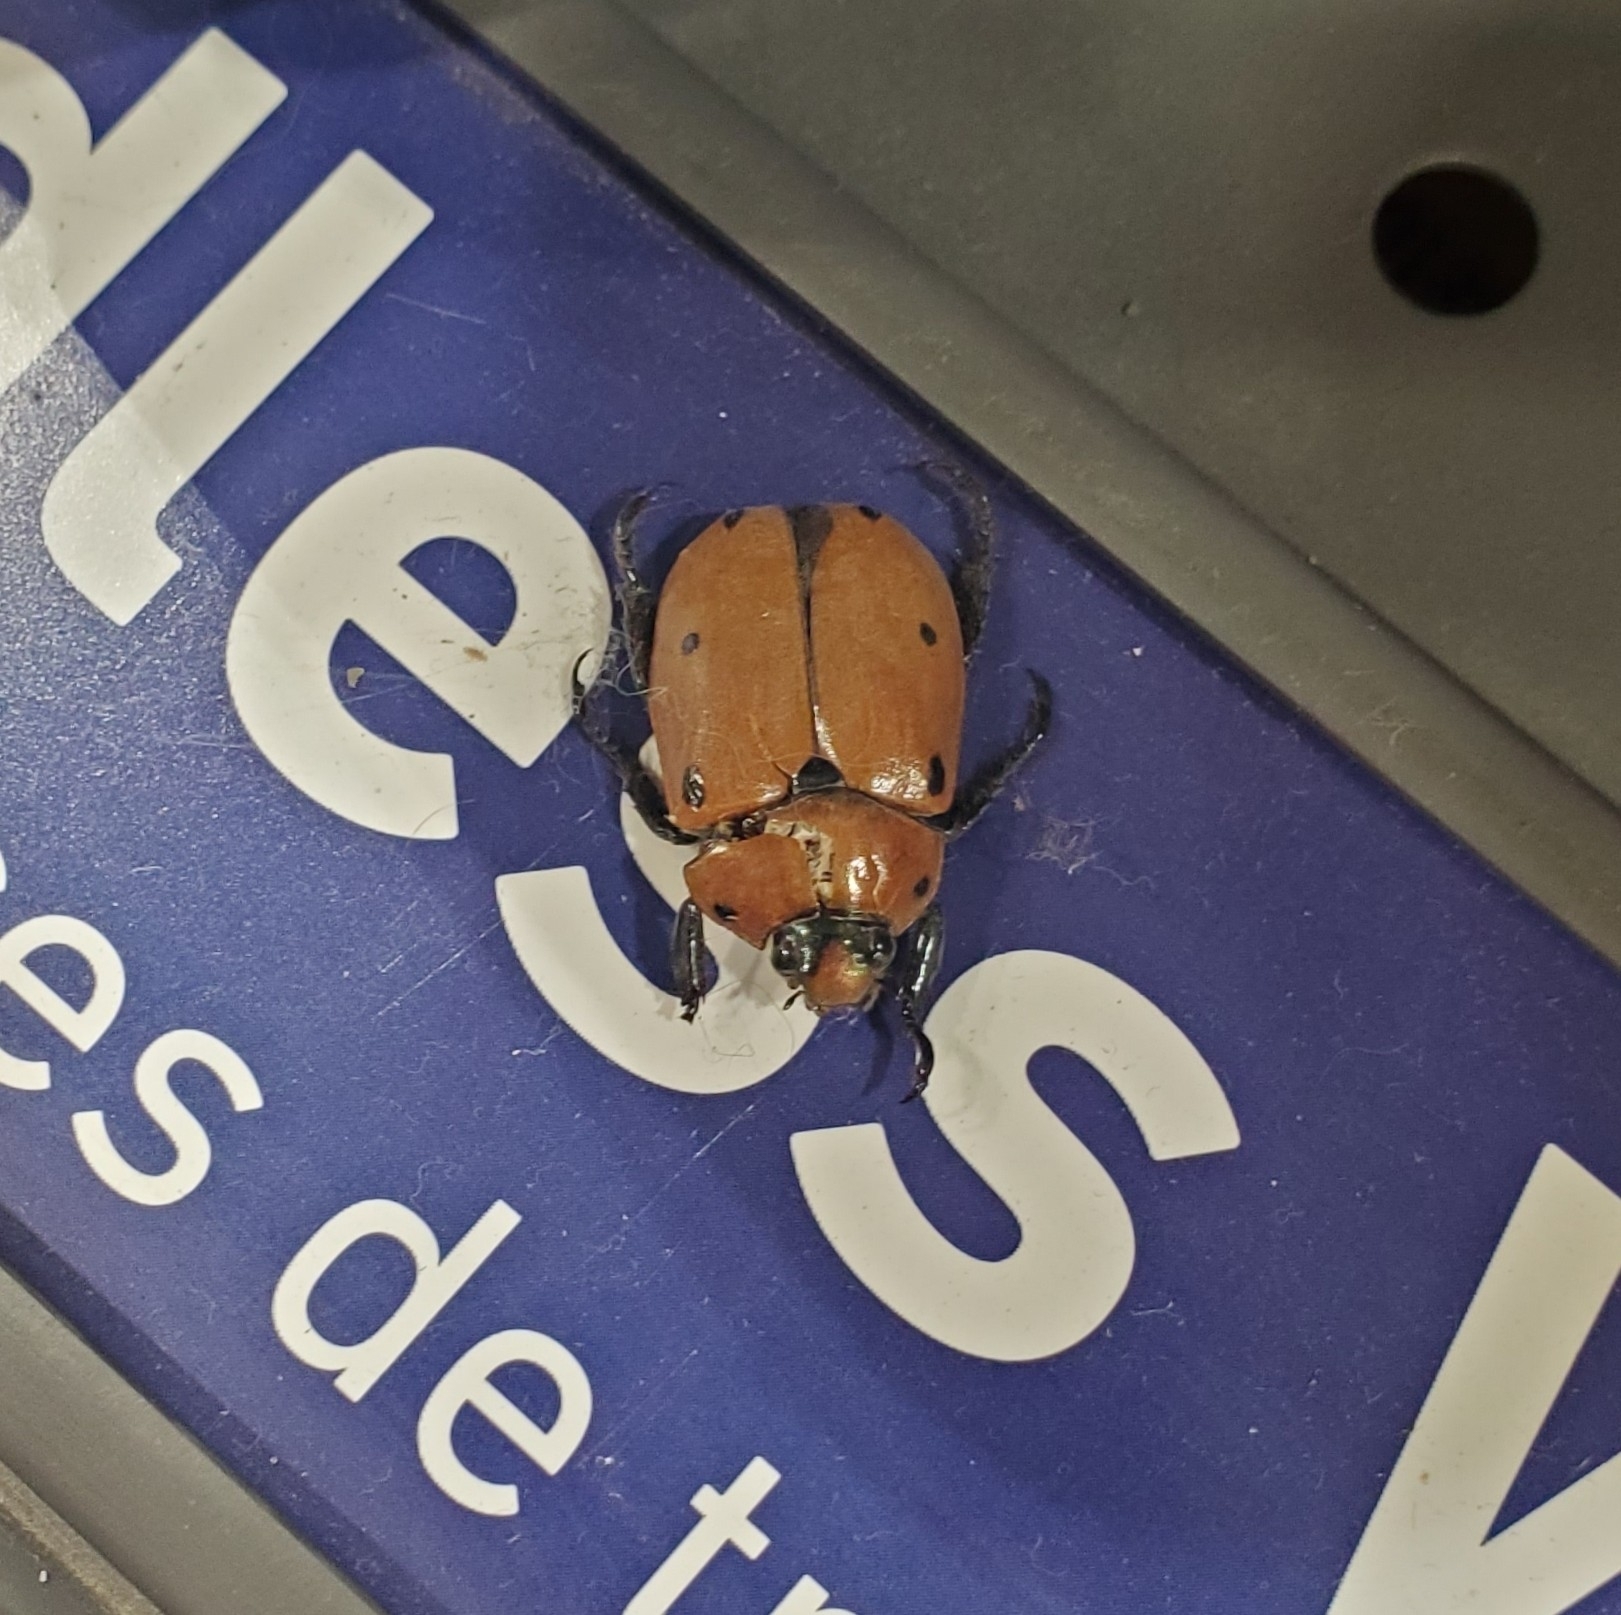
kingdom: Animalia
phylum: Arthropoda
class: Insecta
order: Coleoptera
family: Scarabaeidae
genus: Pelidnota
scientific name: Pelidnota punctata
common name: Grapevine beetle
